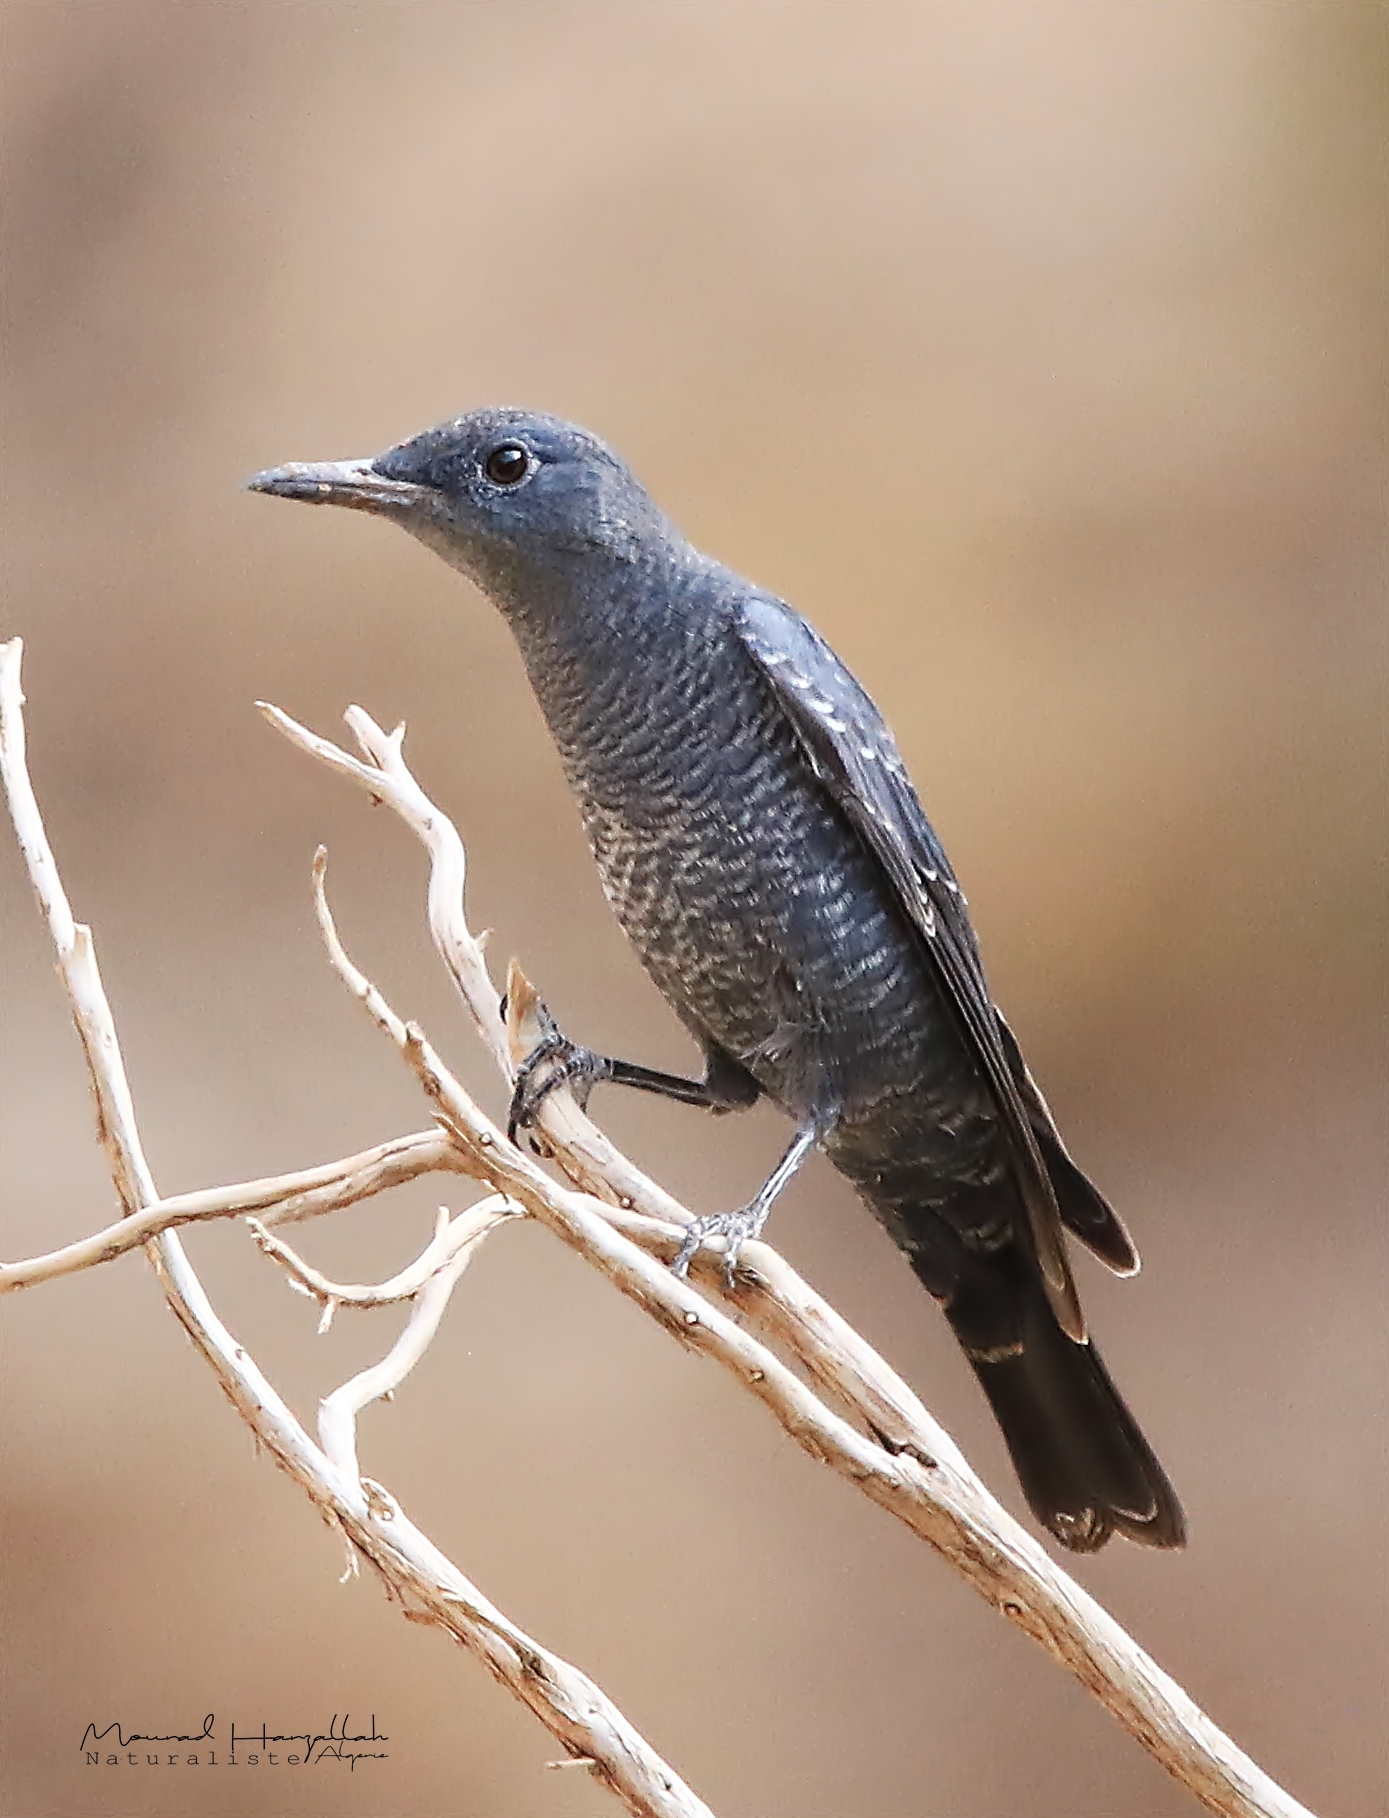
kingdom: Animalia
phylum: Chordata
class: Aves
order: Passeriformes
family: Muscicapidae
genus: Monticola
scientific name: Monticola solitarius
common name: Blue rock thrush
